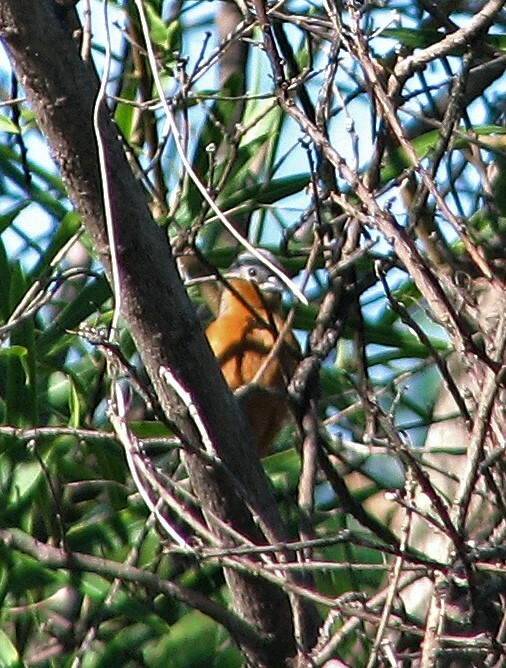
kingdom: Animalia
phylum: Chordata
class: Aves
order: Passeriformes
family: Thraupidae
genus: Sporophila
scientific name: Sporophila hypoxantha
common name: Tawny-bellied seedeater
